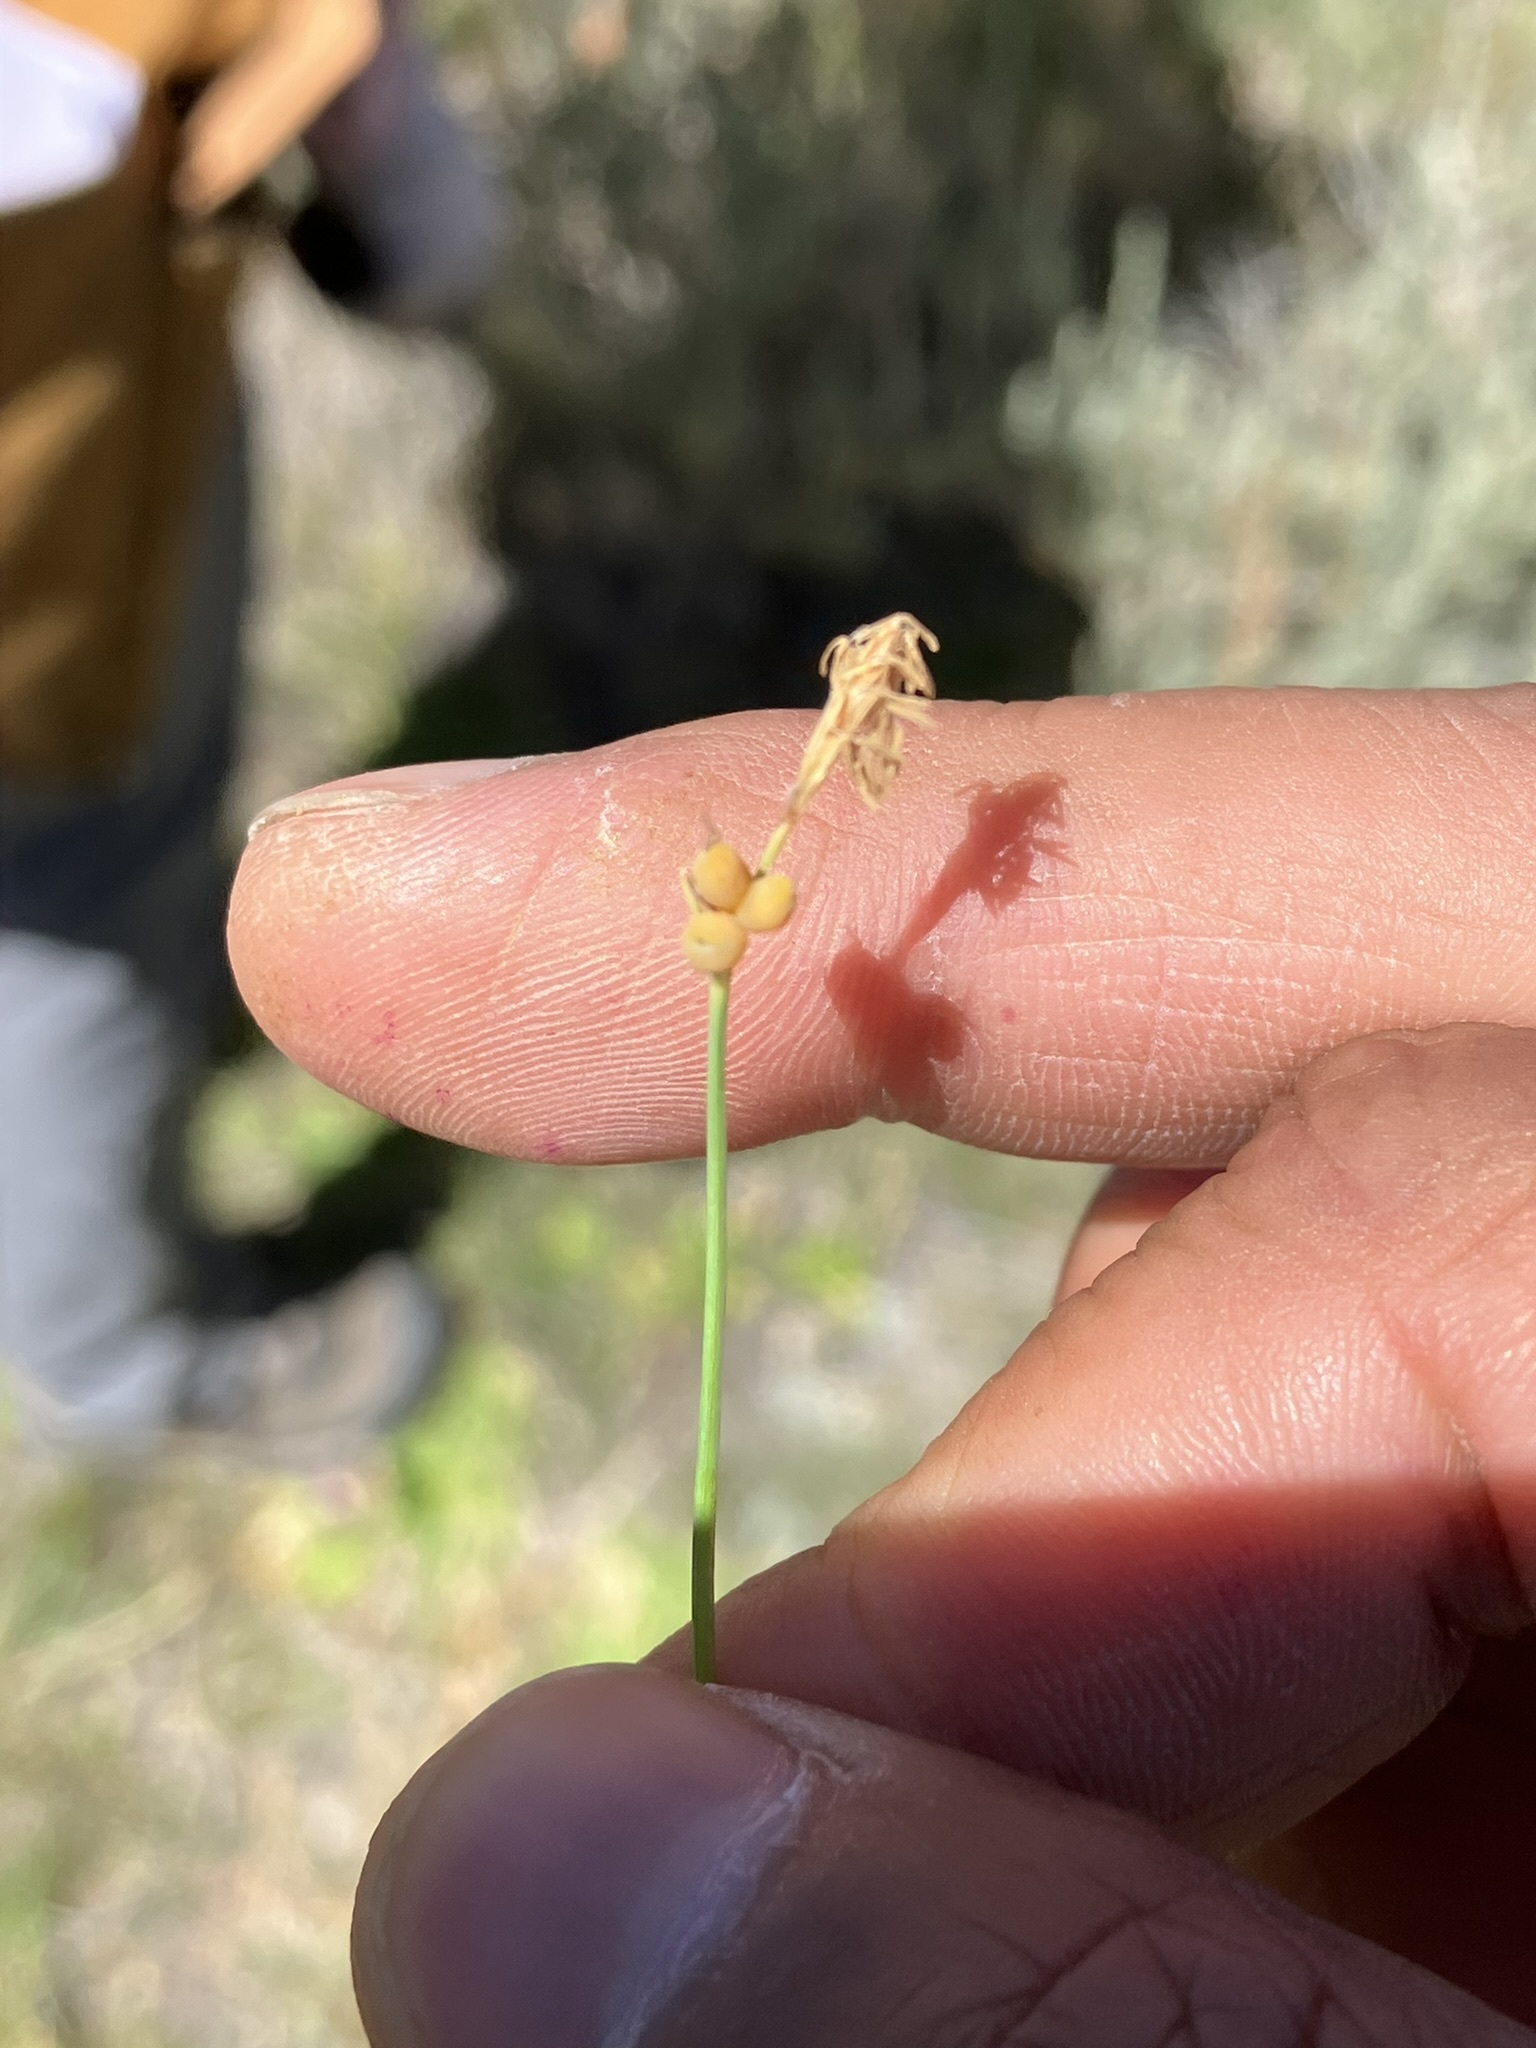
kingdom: Plantae
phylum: Tracheophyta
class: Liliopsida
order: Poales
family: Cyperaceae
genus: Carex
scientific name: Carex aurea
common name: Golden sedge
